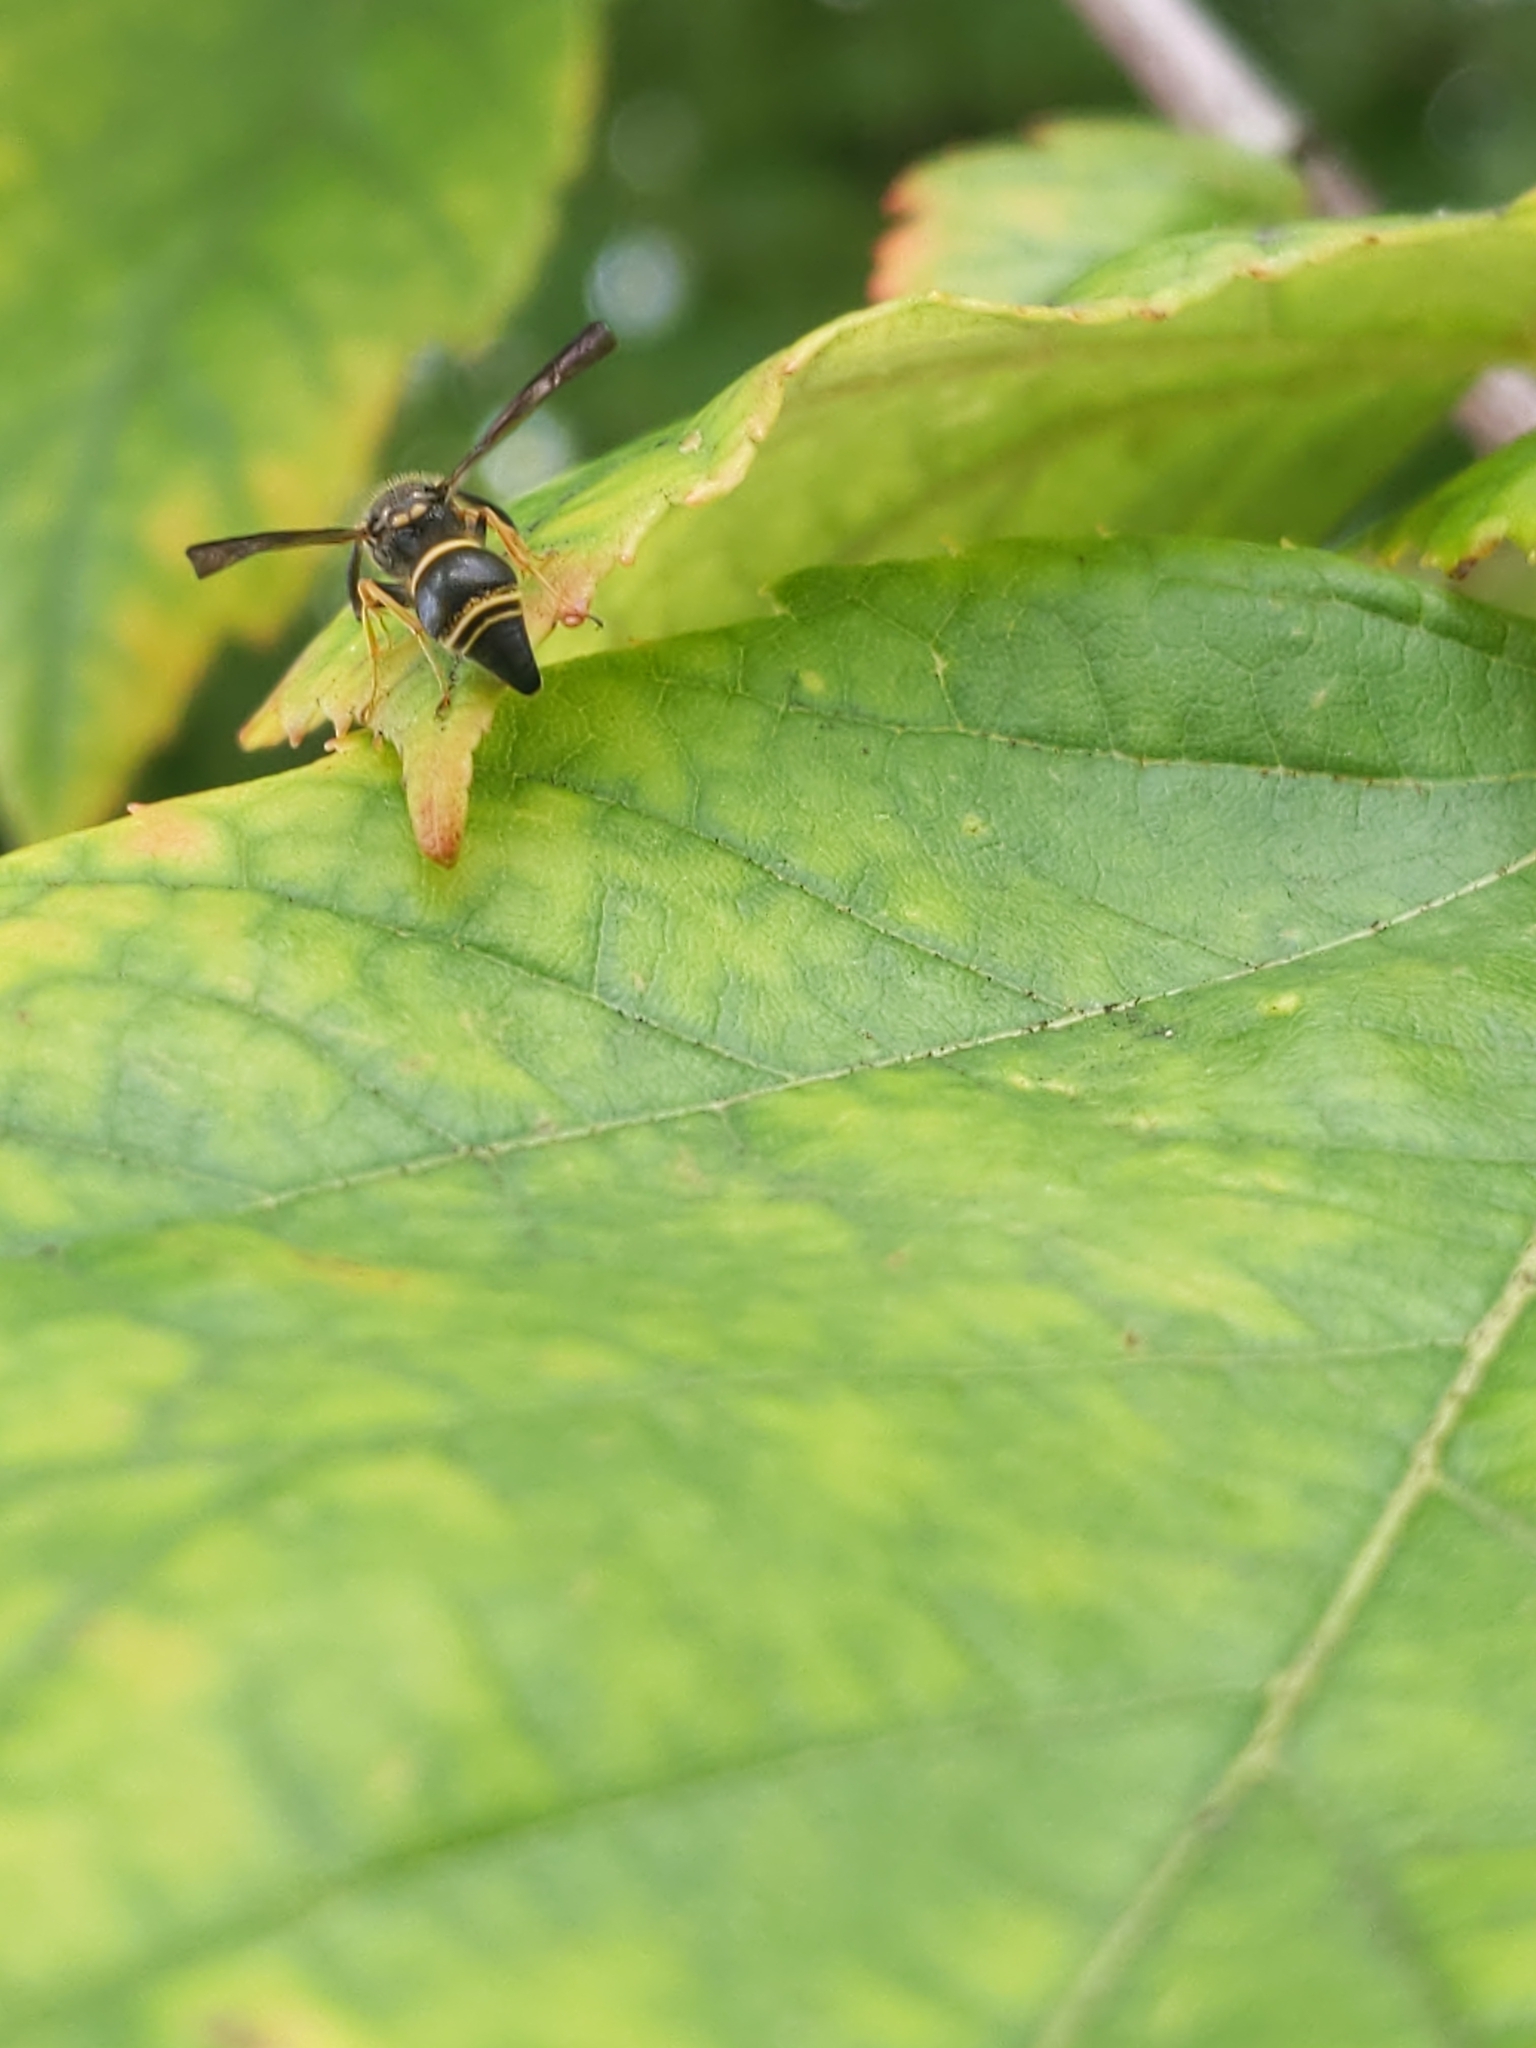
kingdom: Animalia
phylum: Arthropoda
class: Insecta
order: Hymenoptera
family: Vespidae
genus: Ancistrocerus
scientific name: Ancistrocerus campestris
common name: Smiling mason wasp
